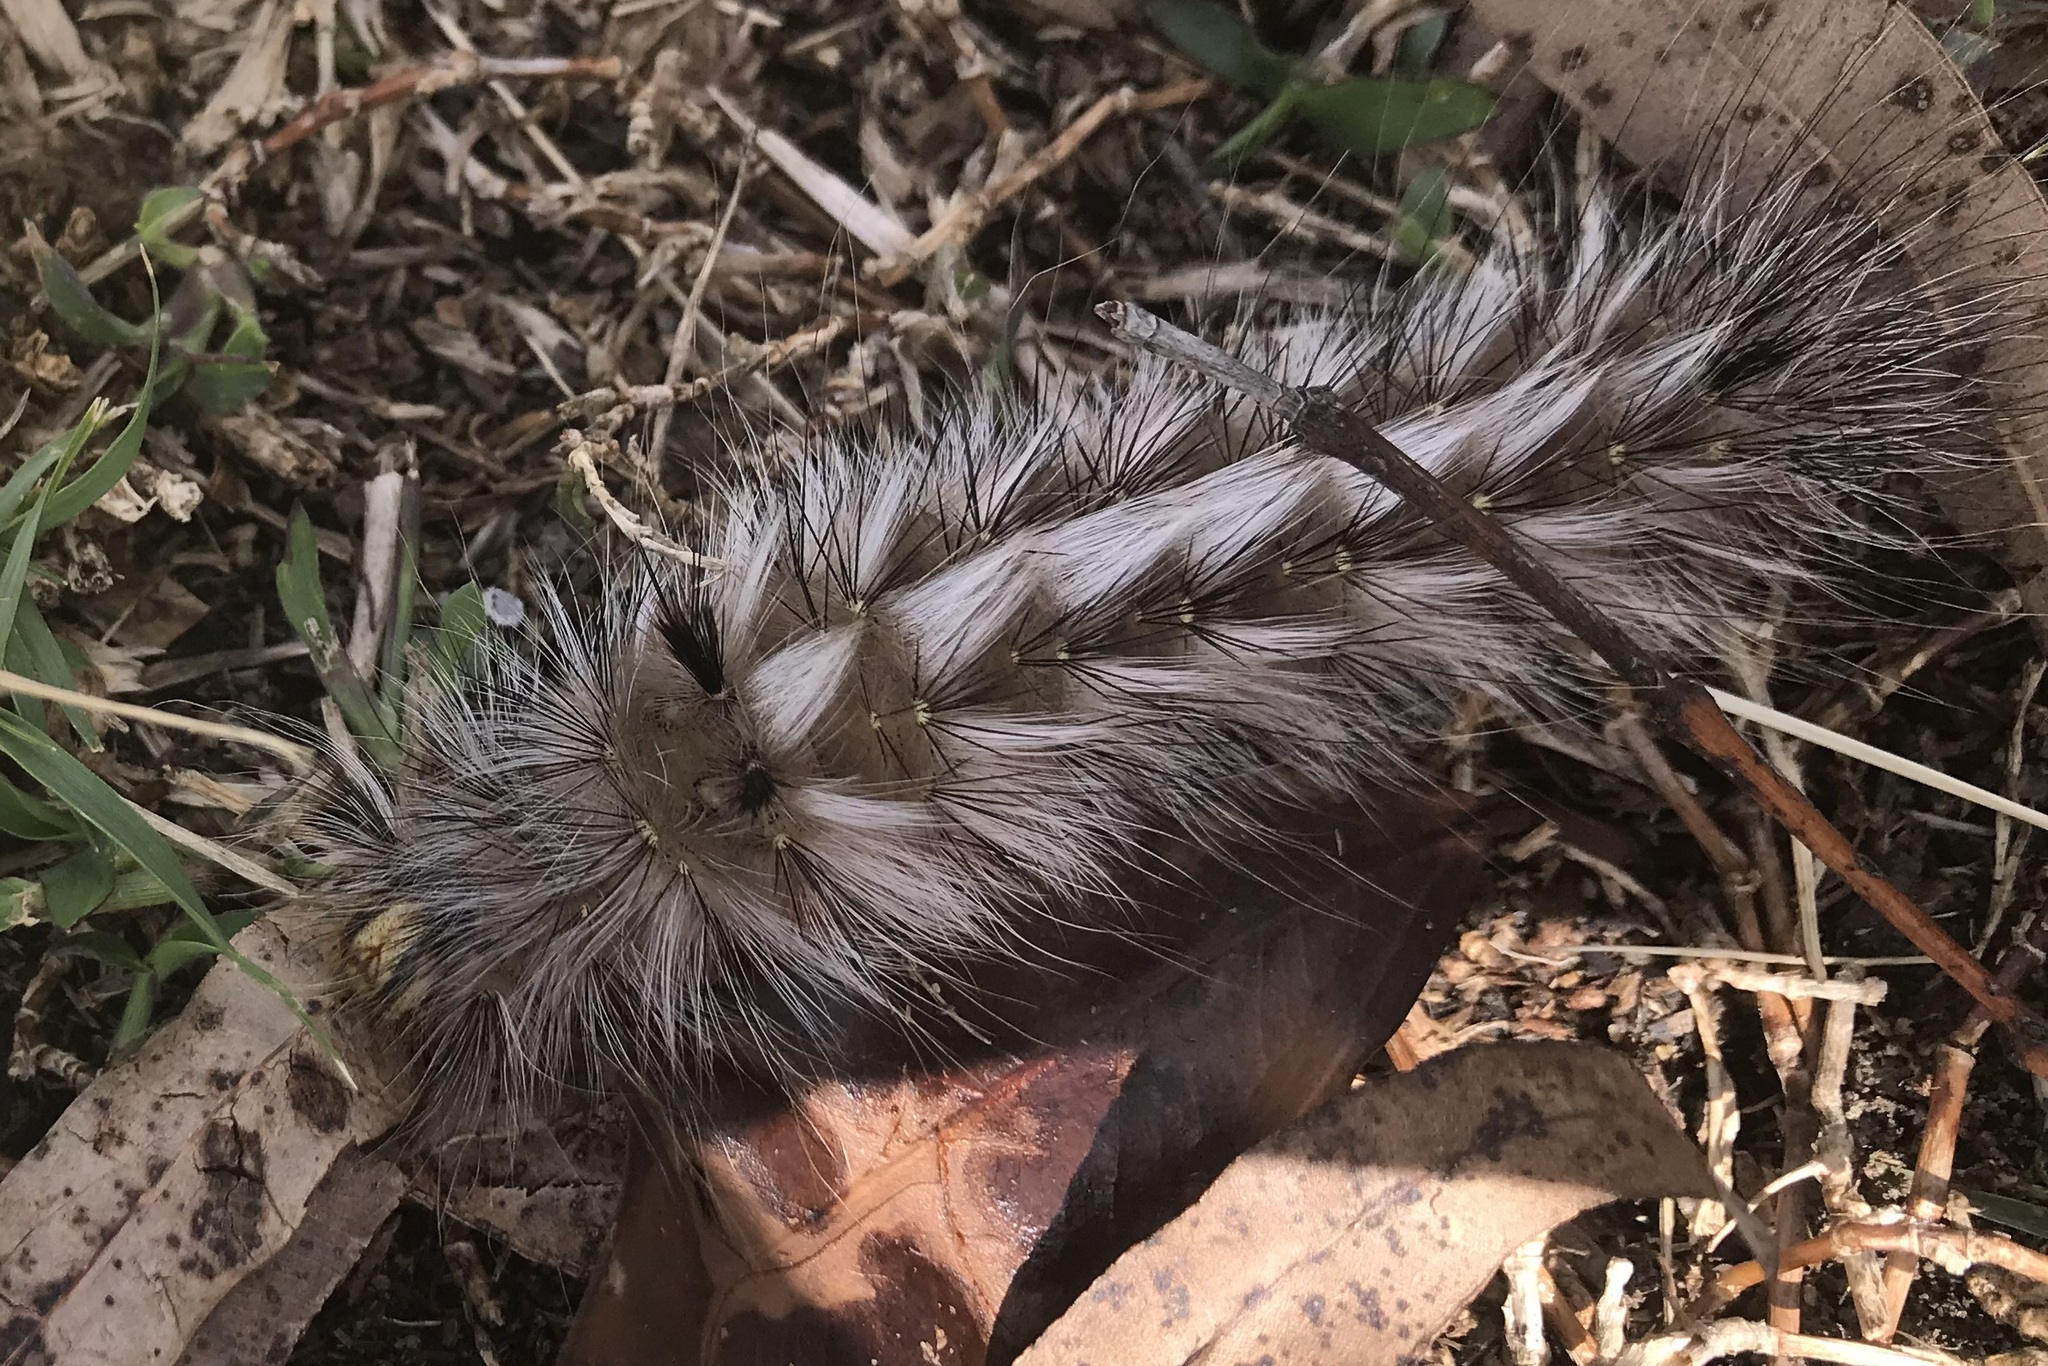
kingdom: Animalia
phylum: Arthropoda
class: Insecta
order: Lepidoptera
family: Anthelidae
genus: Anthela
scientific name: Anthela varia
